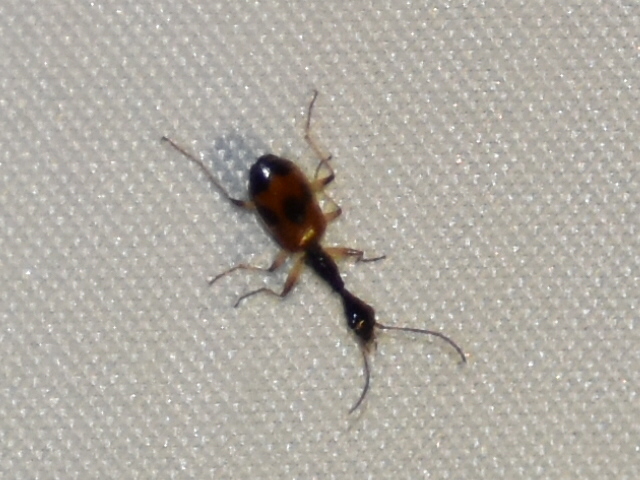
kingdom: Animalia
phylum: Arthropoda
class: Insecta
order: Coleoptera
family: Carabidae
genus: Colliuris
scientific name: Colliuris pensylvanica
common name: Long-necked ground beetle
